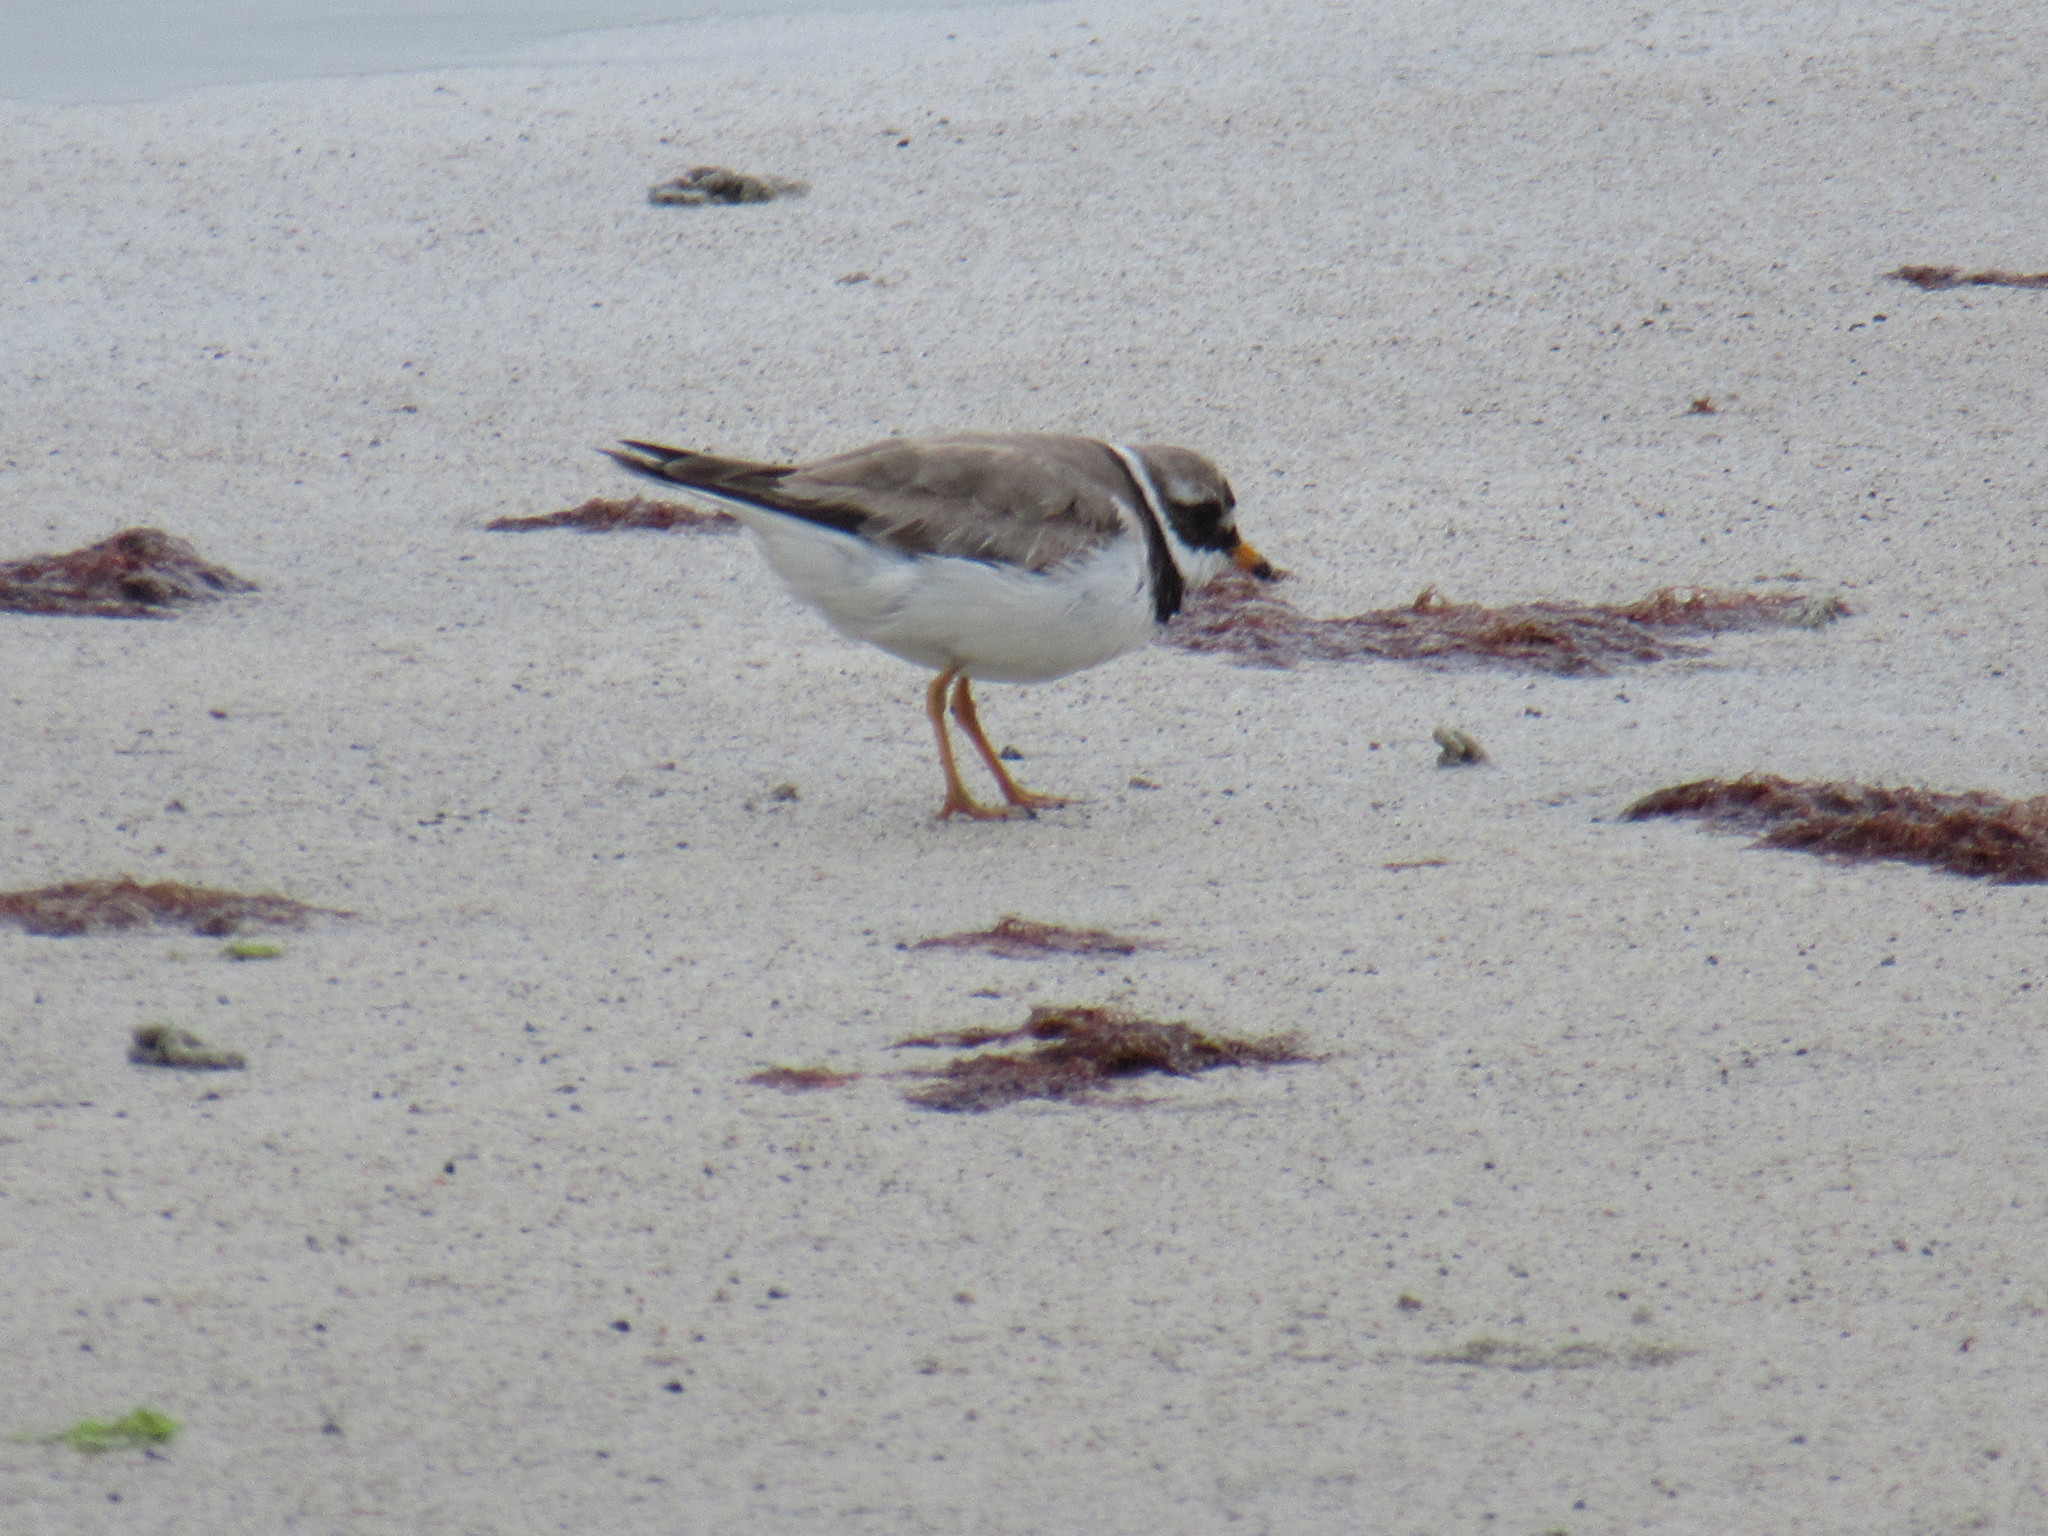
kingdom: Animalia
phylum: Chordata
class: Aves
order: Charadriiformes
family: Charadriidae
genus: Charadrius
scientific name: Charadrius hiaticula
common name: Common ringed plover
